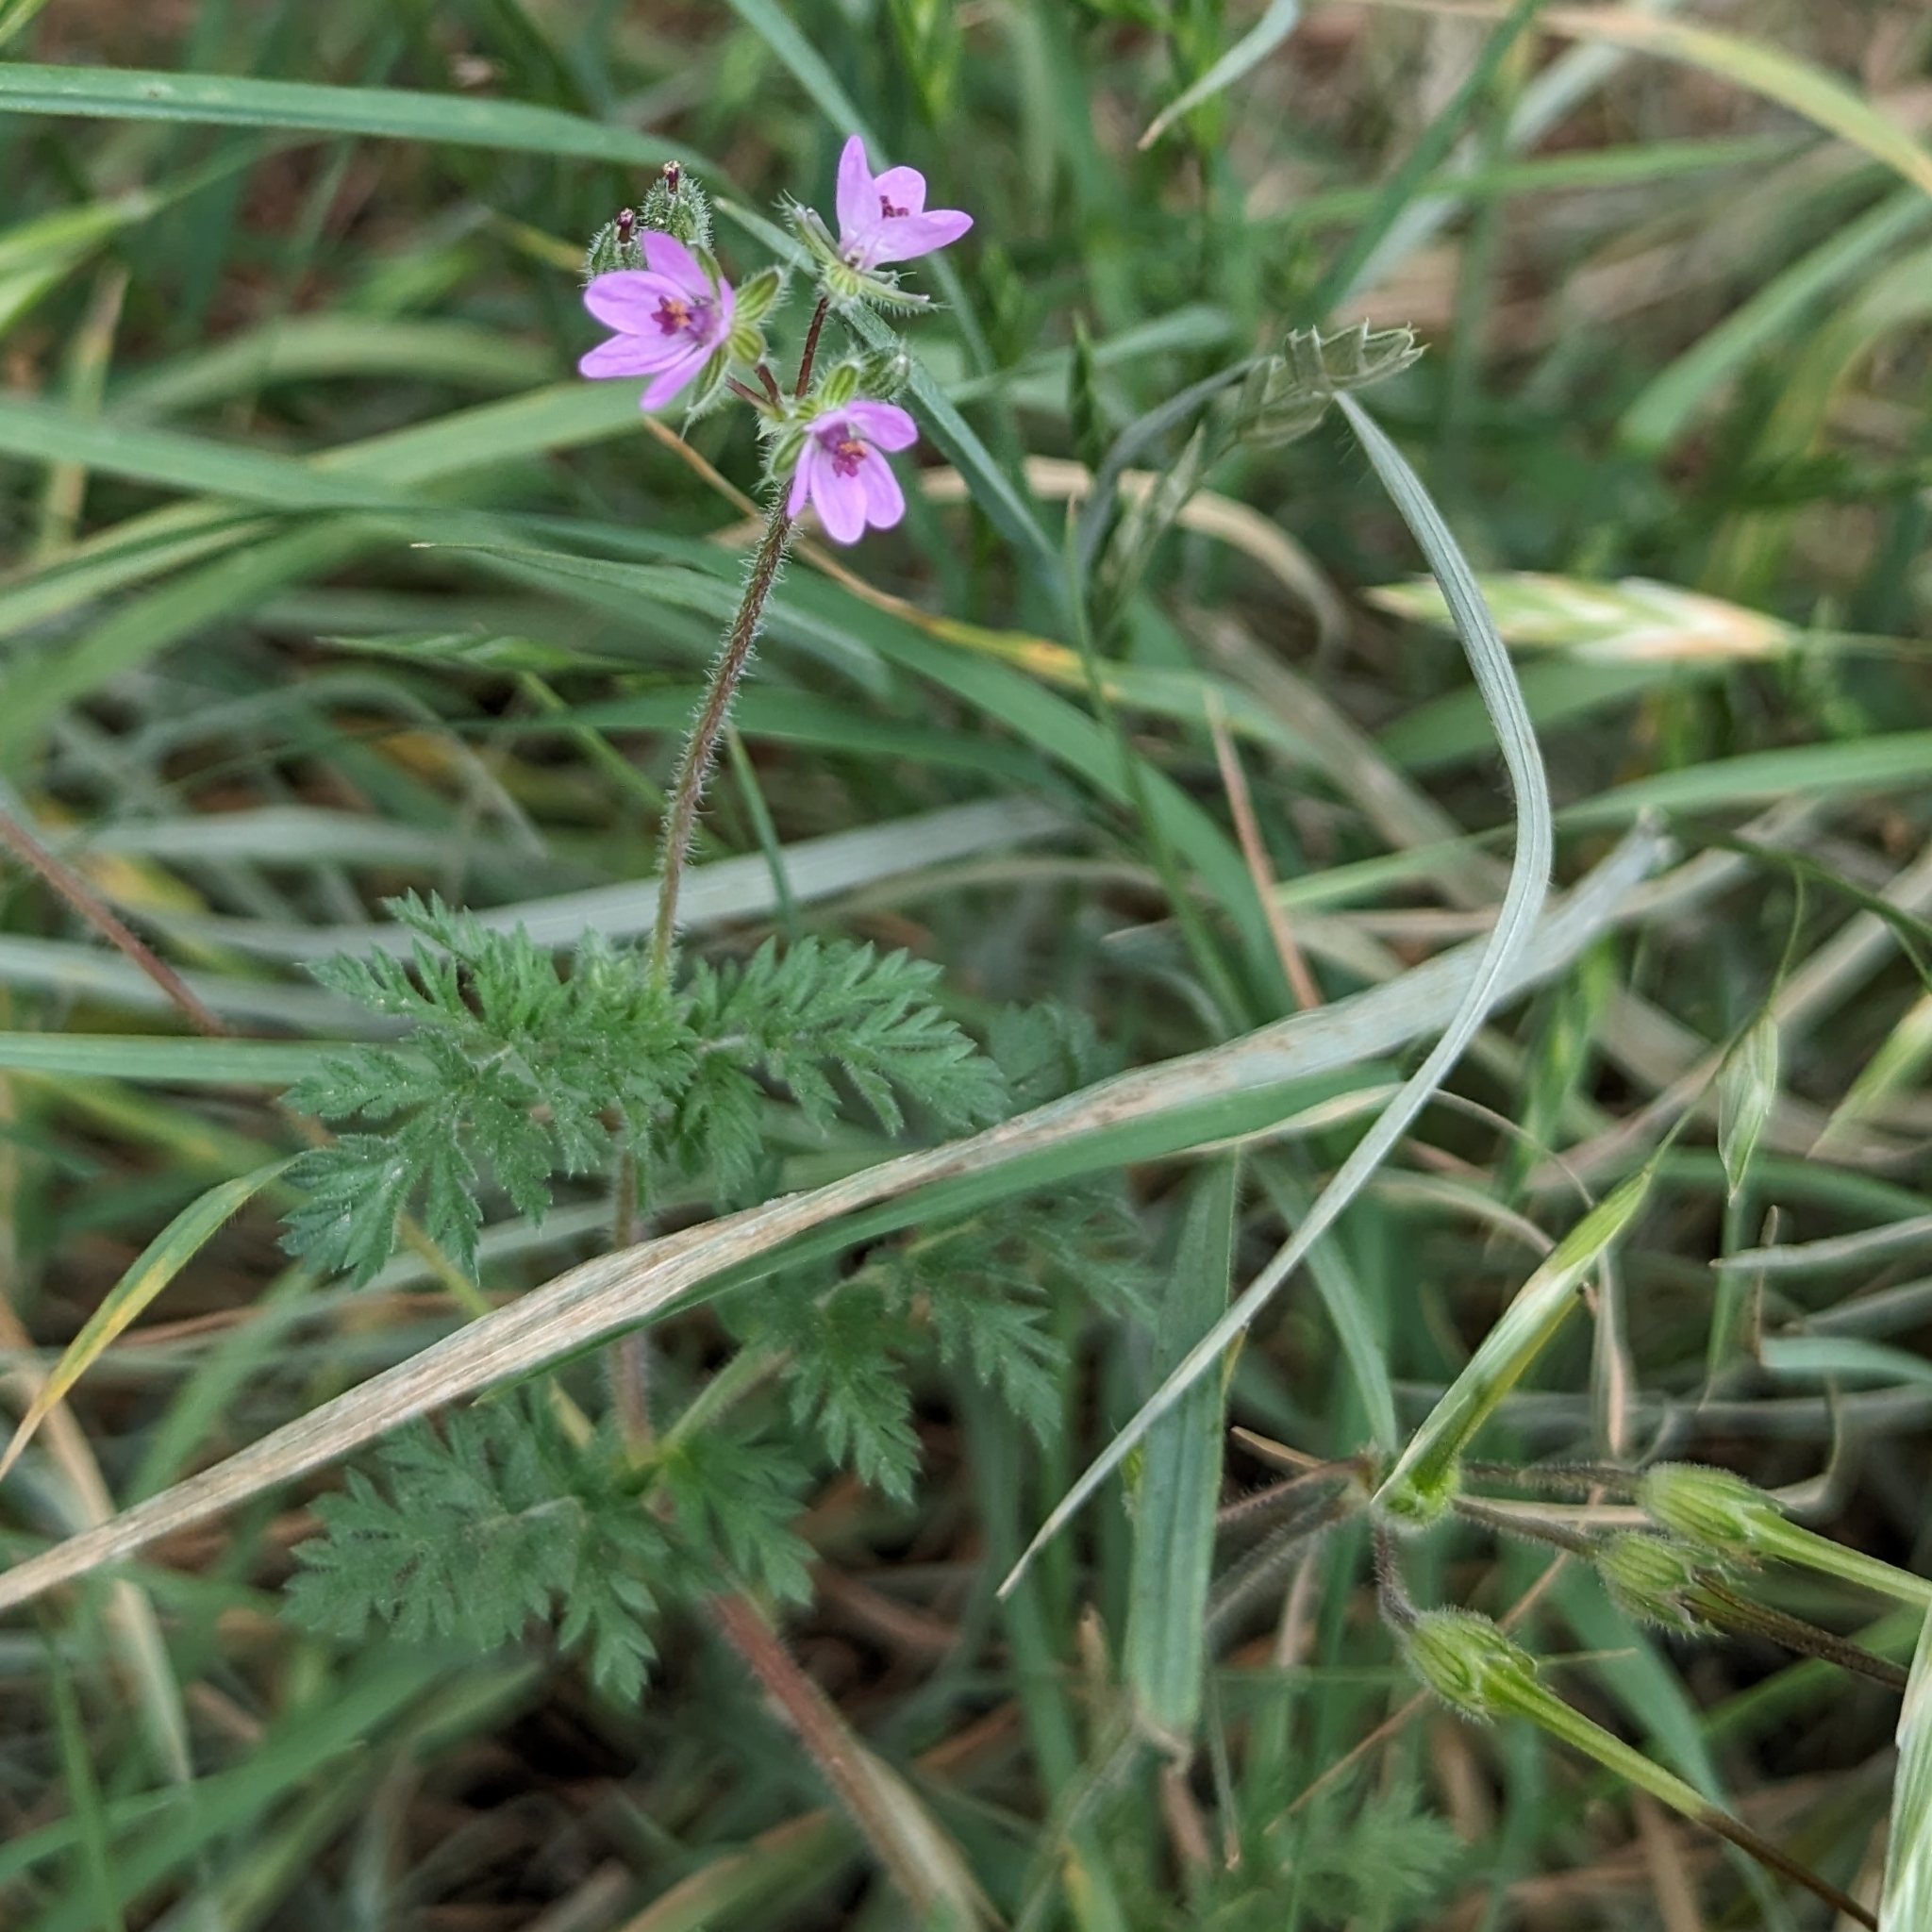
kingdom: Plantae
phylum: Tracheophyta
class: Magnoliopsida
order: Geraniales
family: Geraniaceae
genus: Erodium
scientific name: Erodium cicutarium
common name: Common stork's-bill
